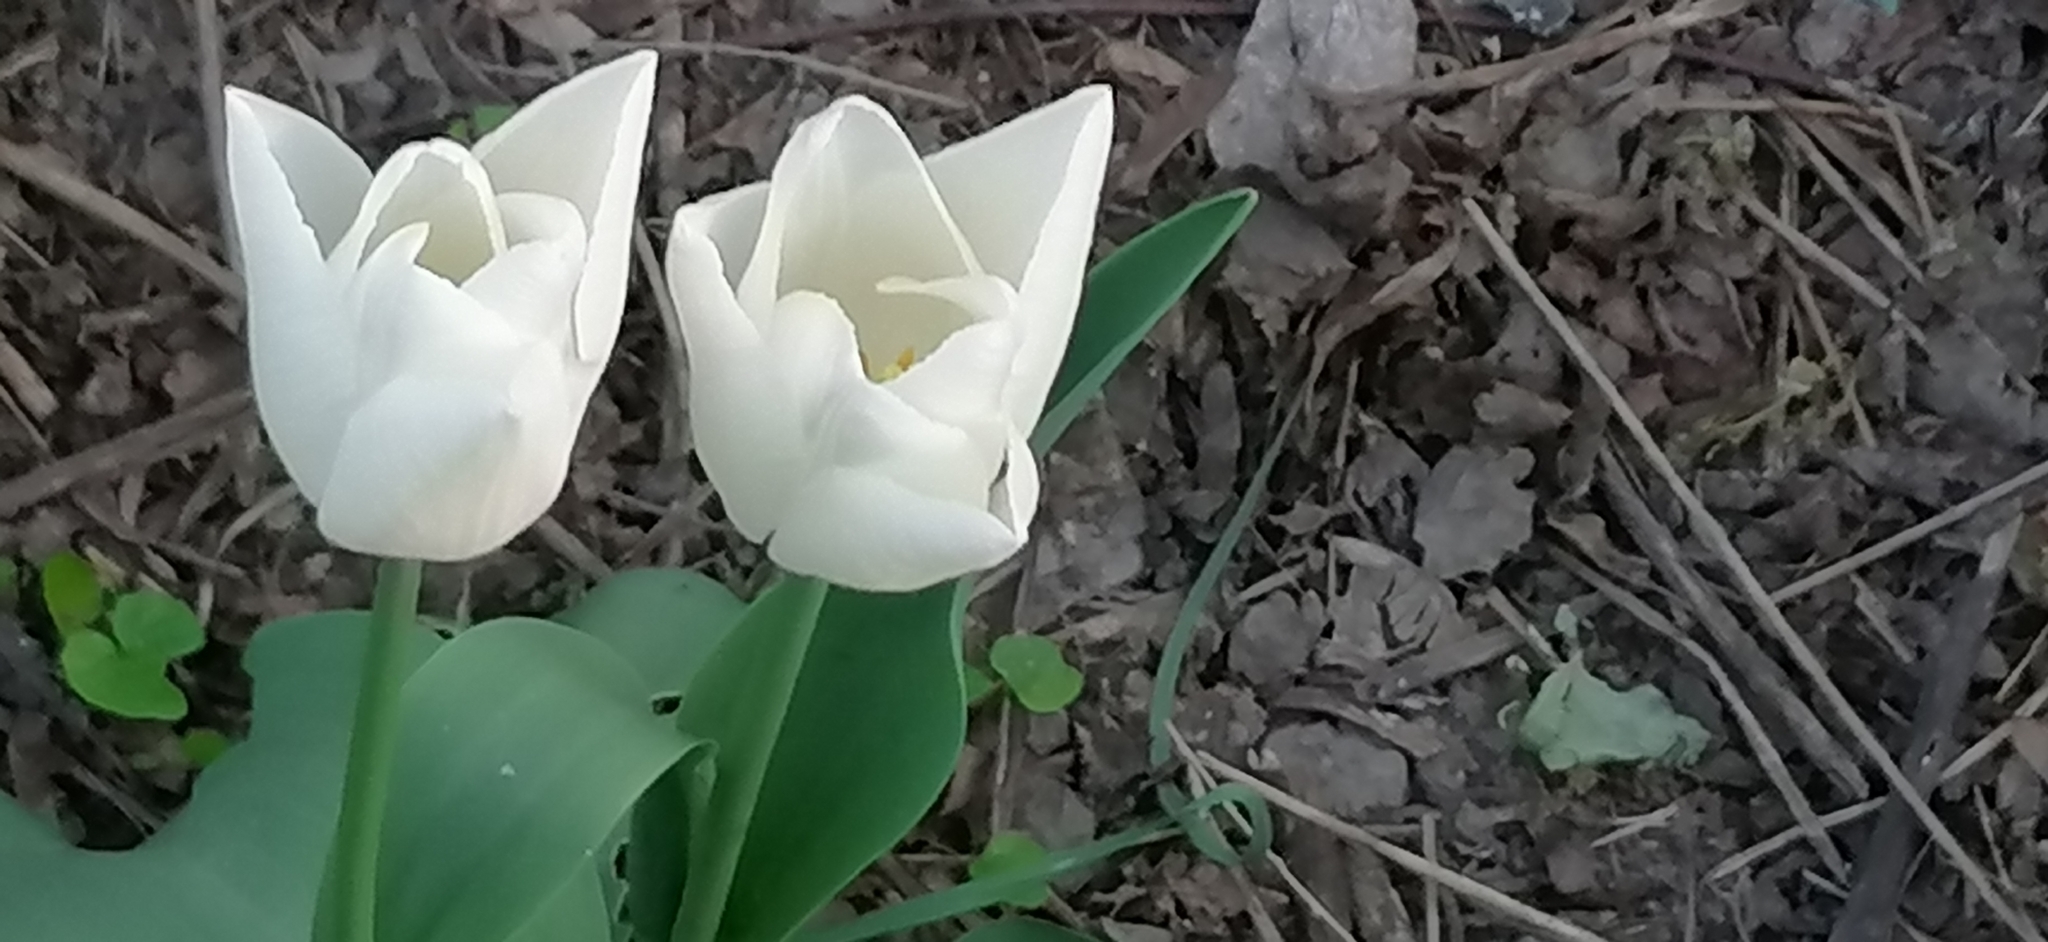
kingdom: Plantae
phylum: Tracheophyta
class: Liliopsida
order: Liliales
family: Liliaceae
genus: Tulipa
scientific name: Tulipa gesneriana
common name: Garden tulip
